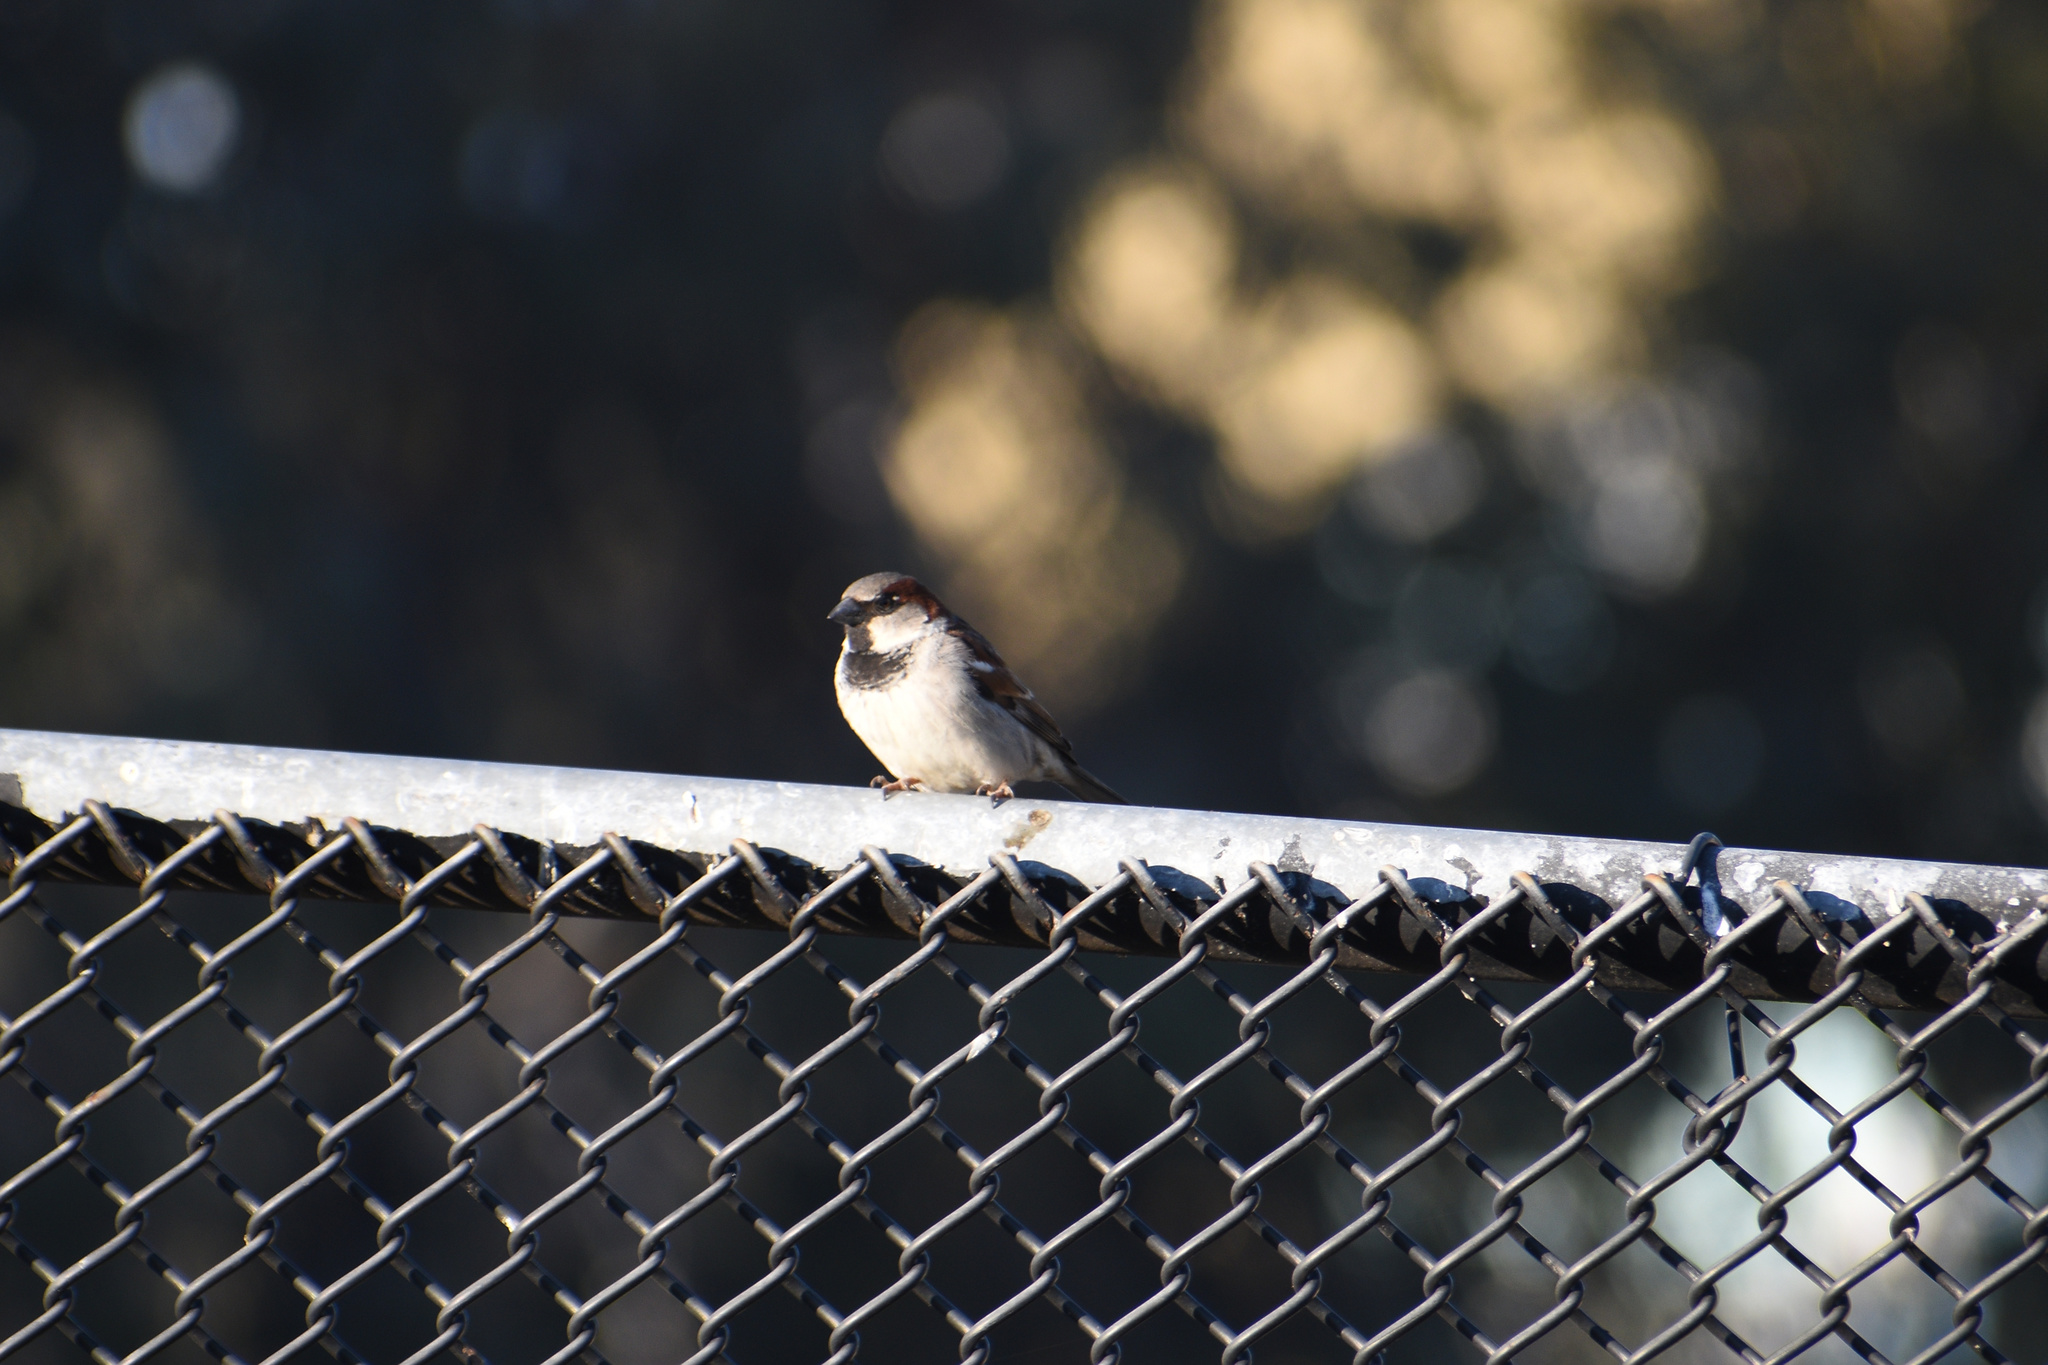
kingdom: Animalia
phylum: Chordata
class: Aves
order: Passeriformes
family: Passeridae
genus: Passer
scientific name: Passer domesticus
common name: House sparrow
